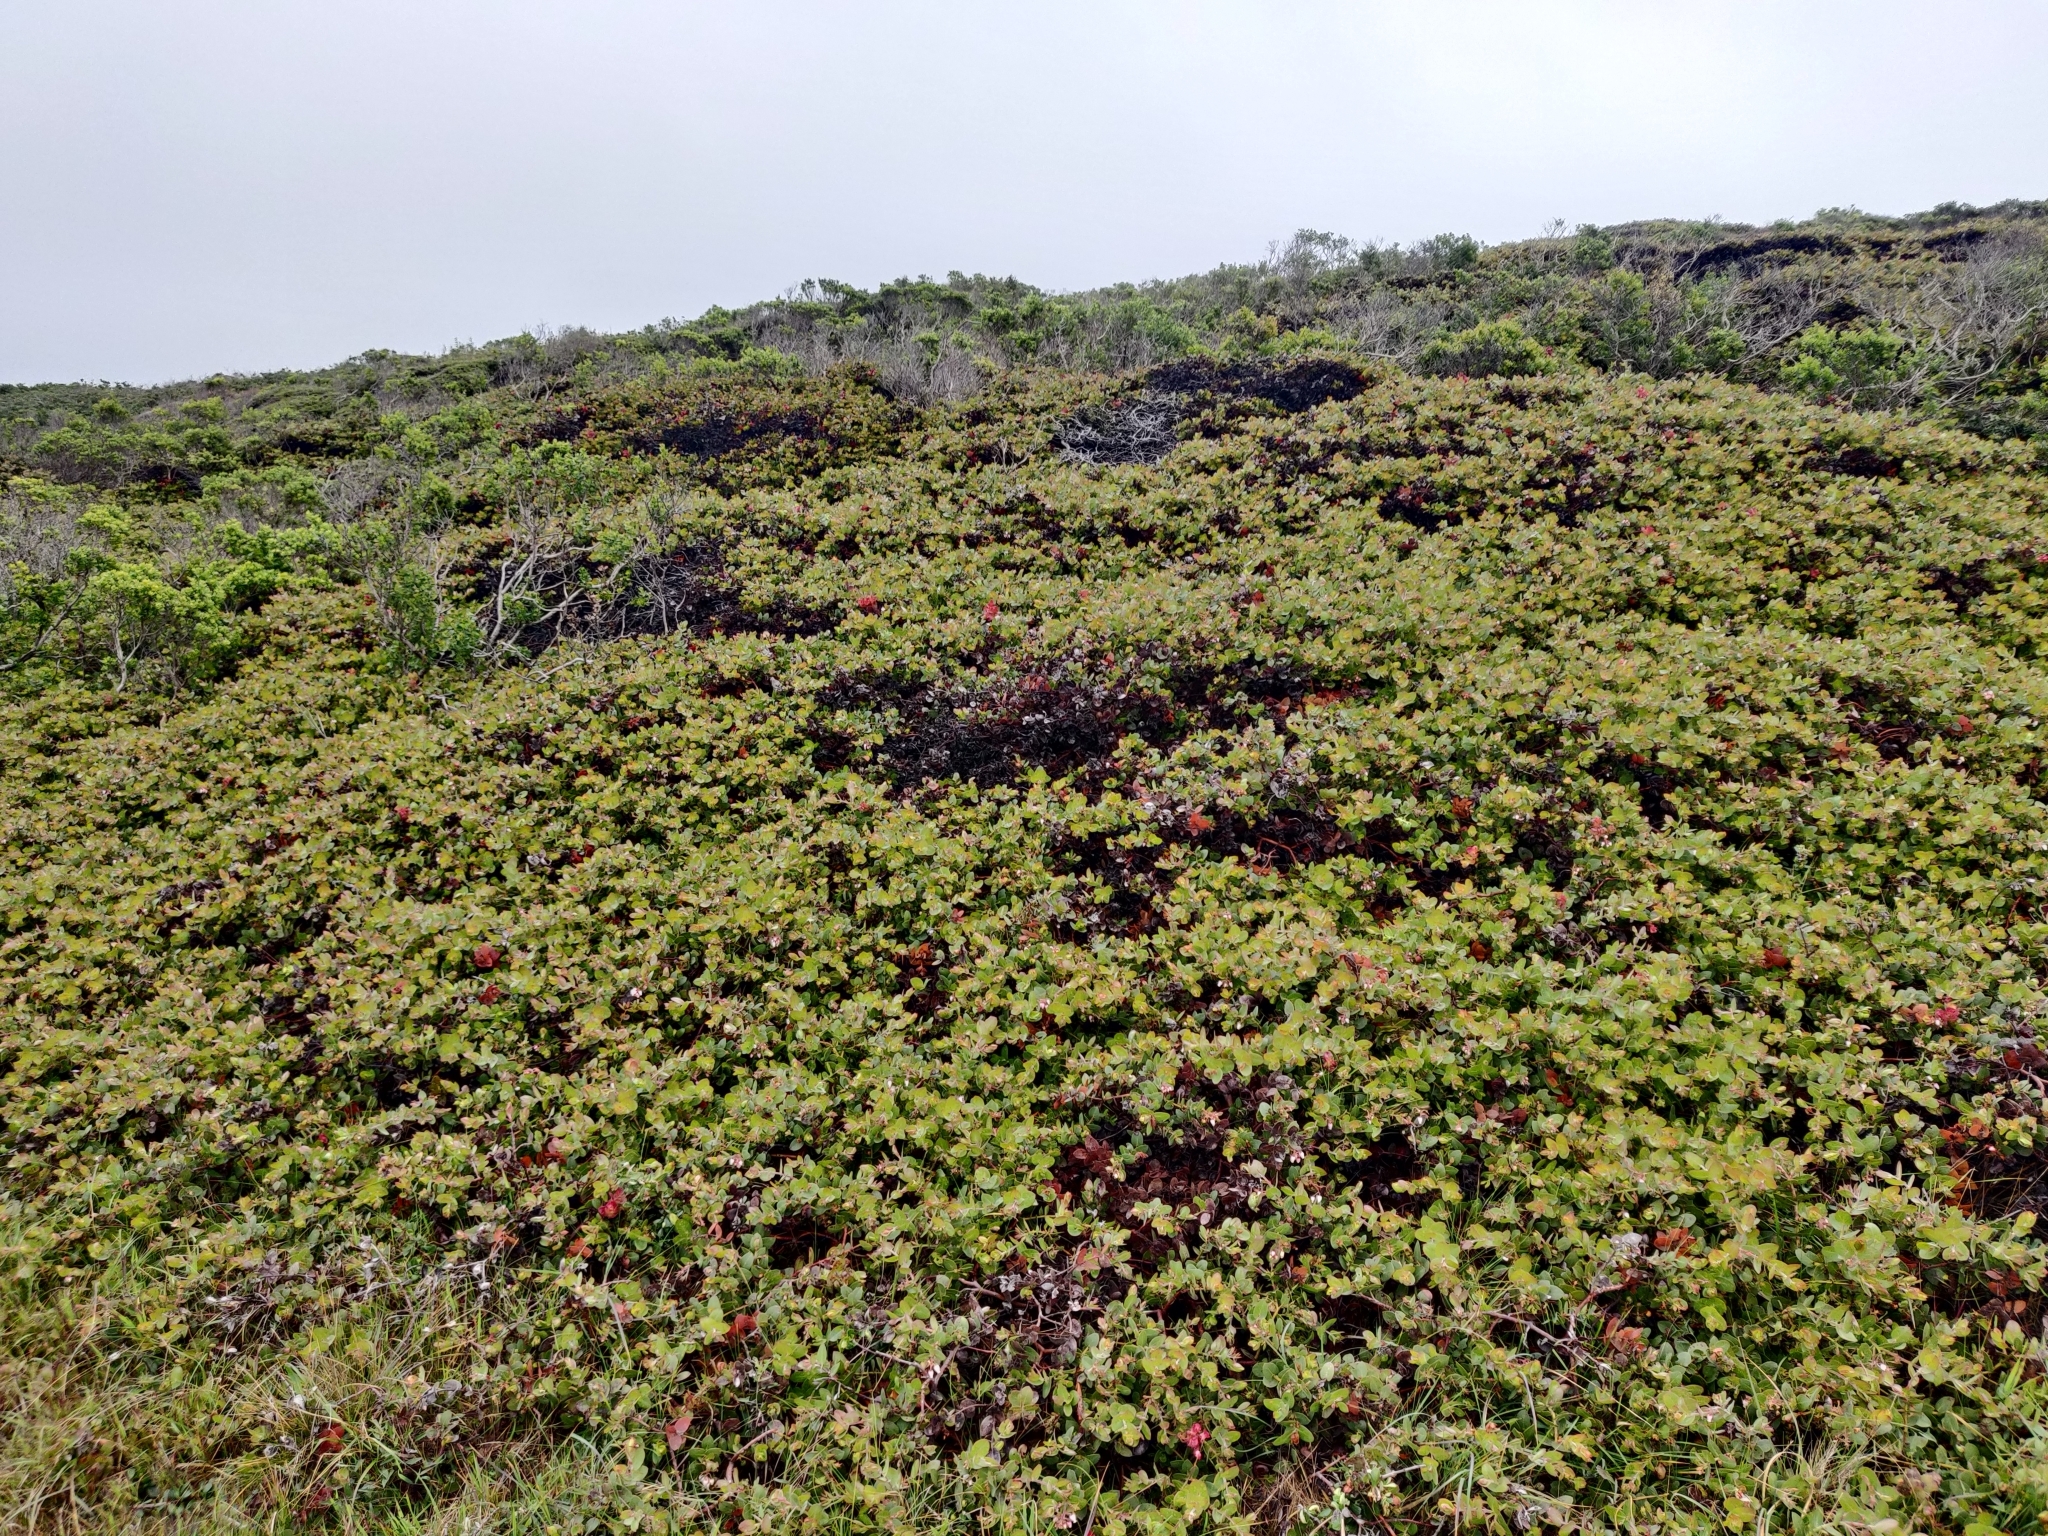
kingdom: Plantae
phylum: Tracheophyta
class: Magnoliopsida
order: Ericales
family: Ericaceae
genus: Arctostaphylos
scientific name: Arctostaphylos cruzensis
